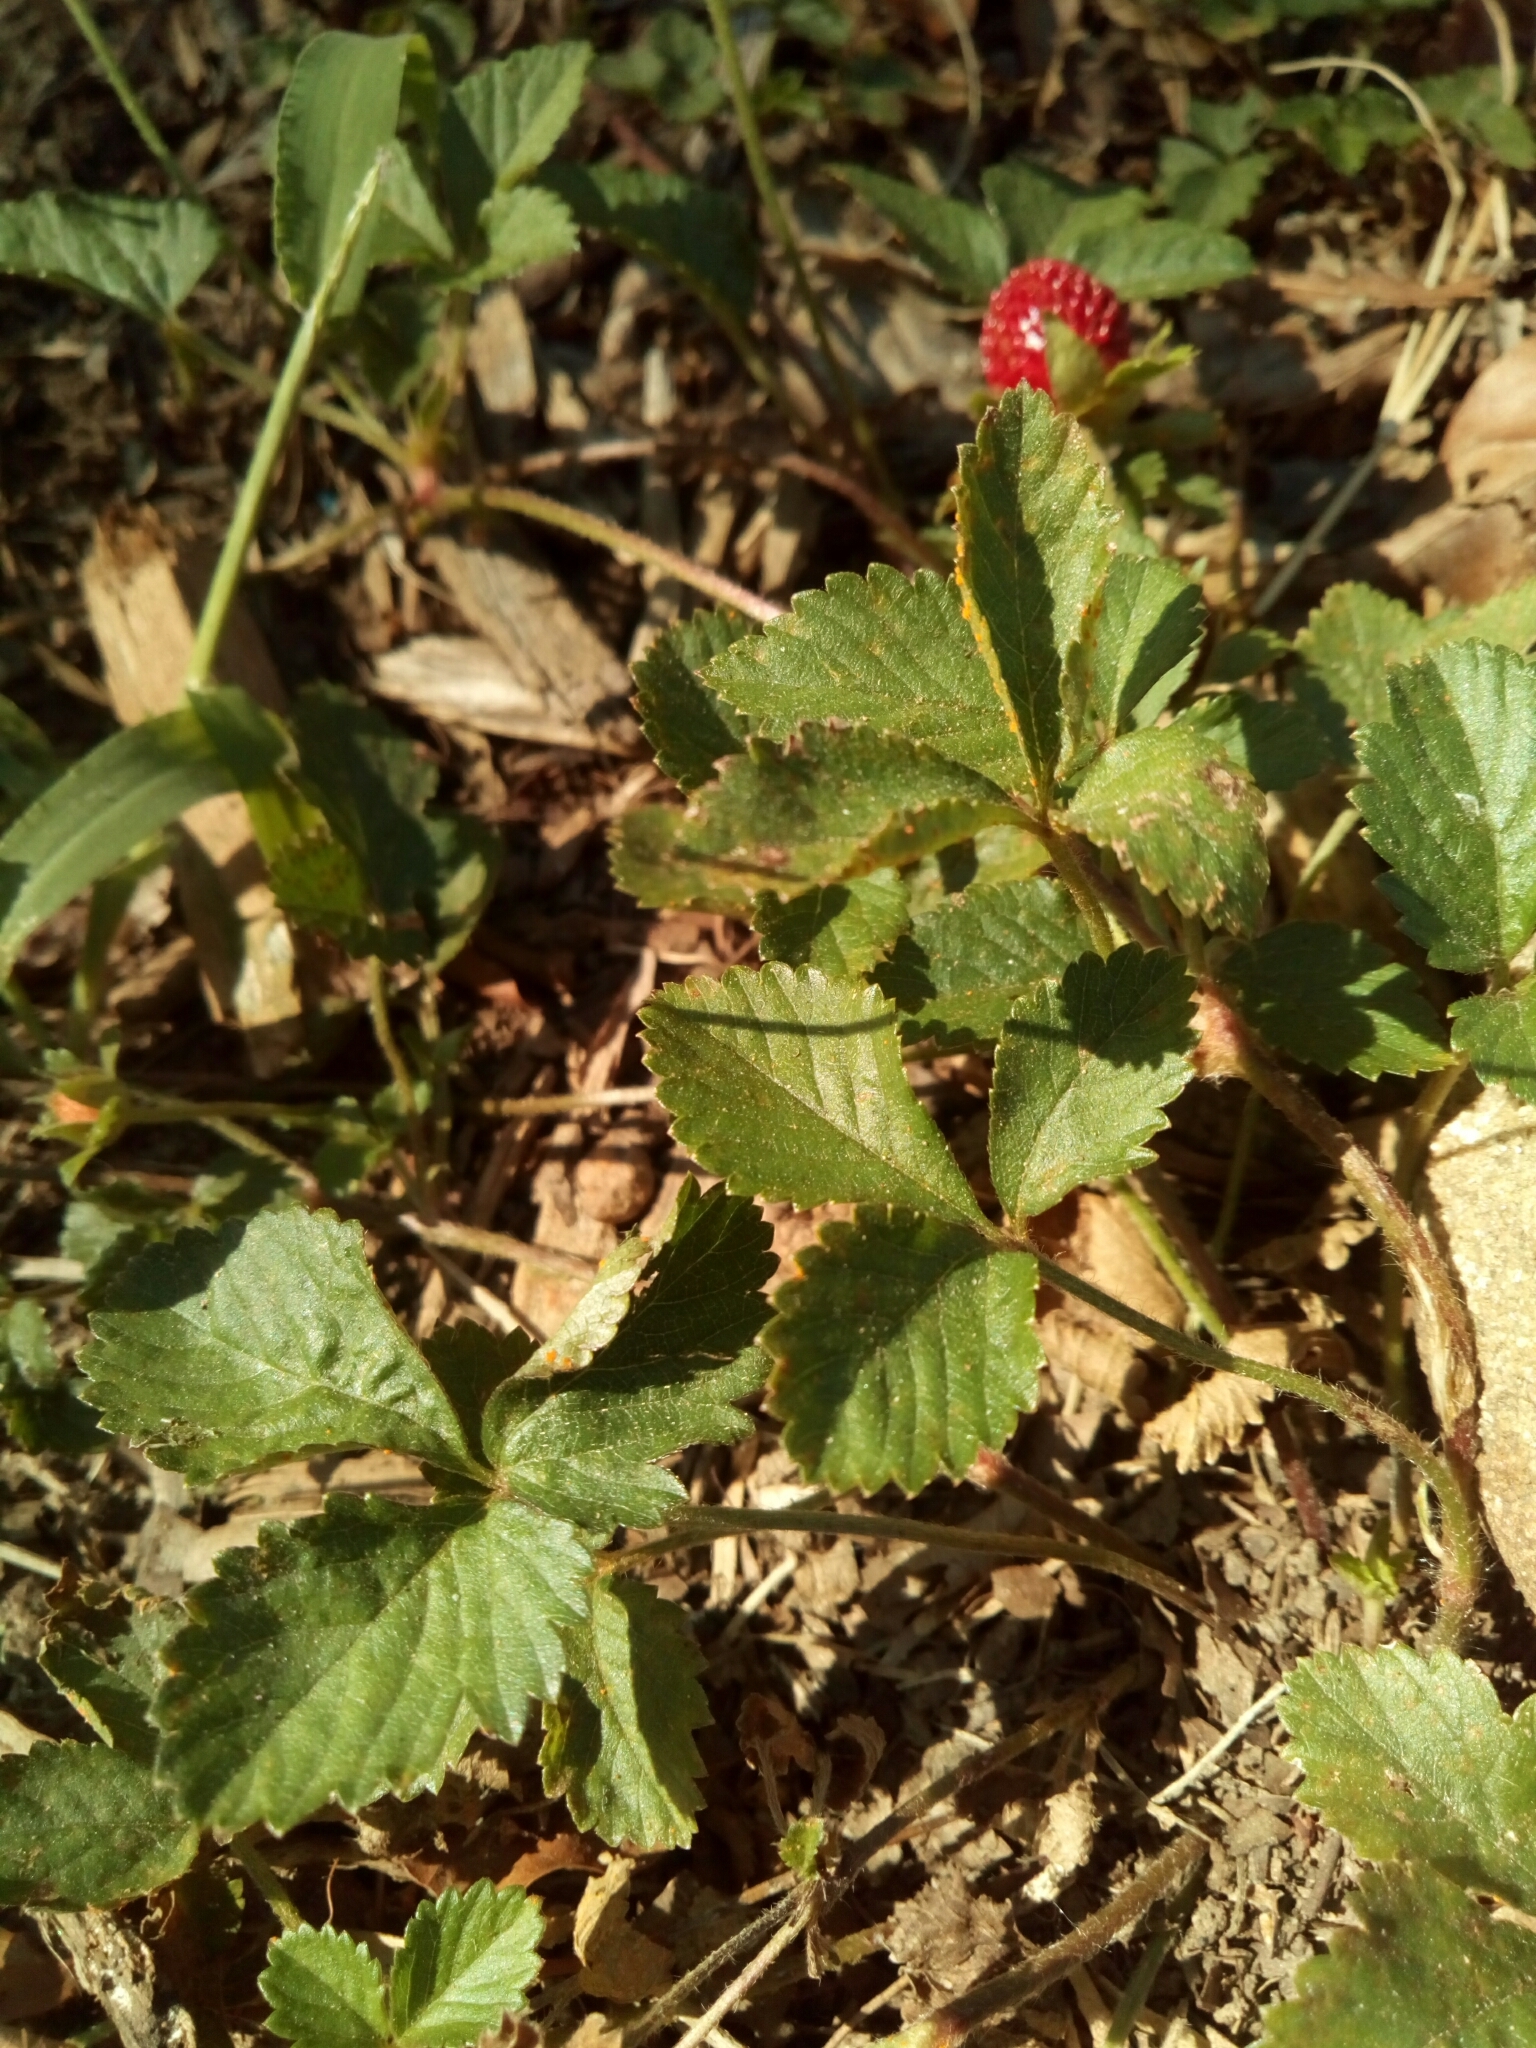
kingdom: Plantae
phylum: Tracheophyta
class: Magnoliopsida
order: Rosales
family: Rosaceae
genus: Potentilla
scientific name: Potentilla indica
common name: Yellow-flowered strawberry
